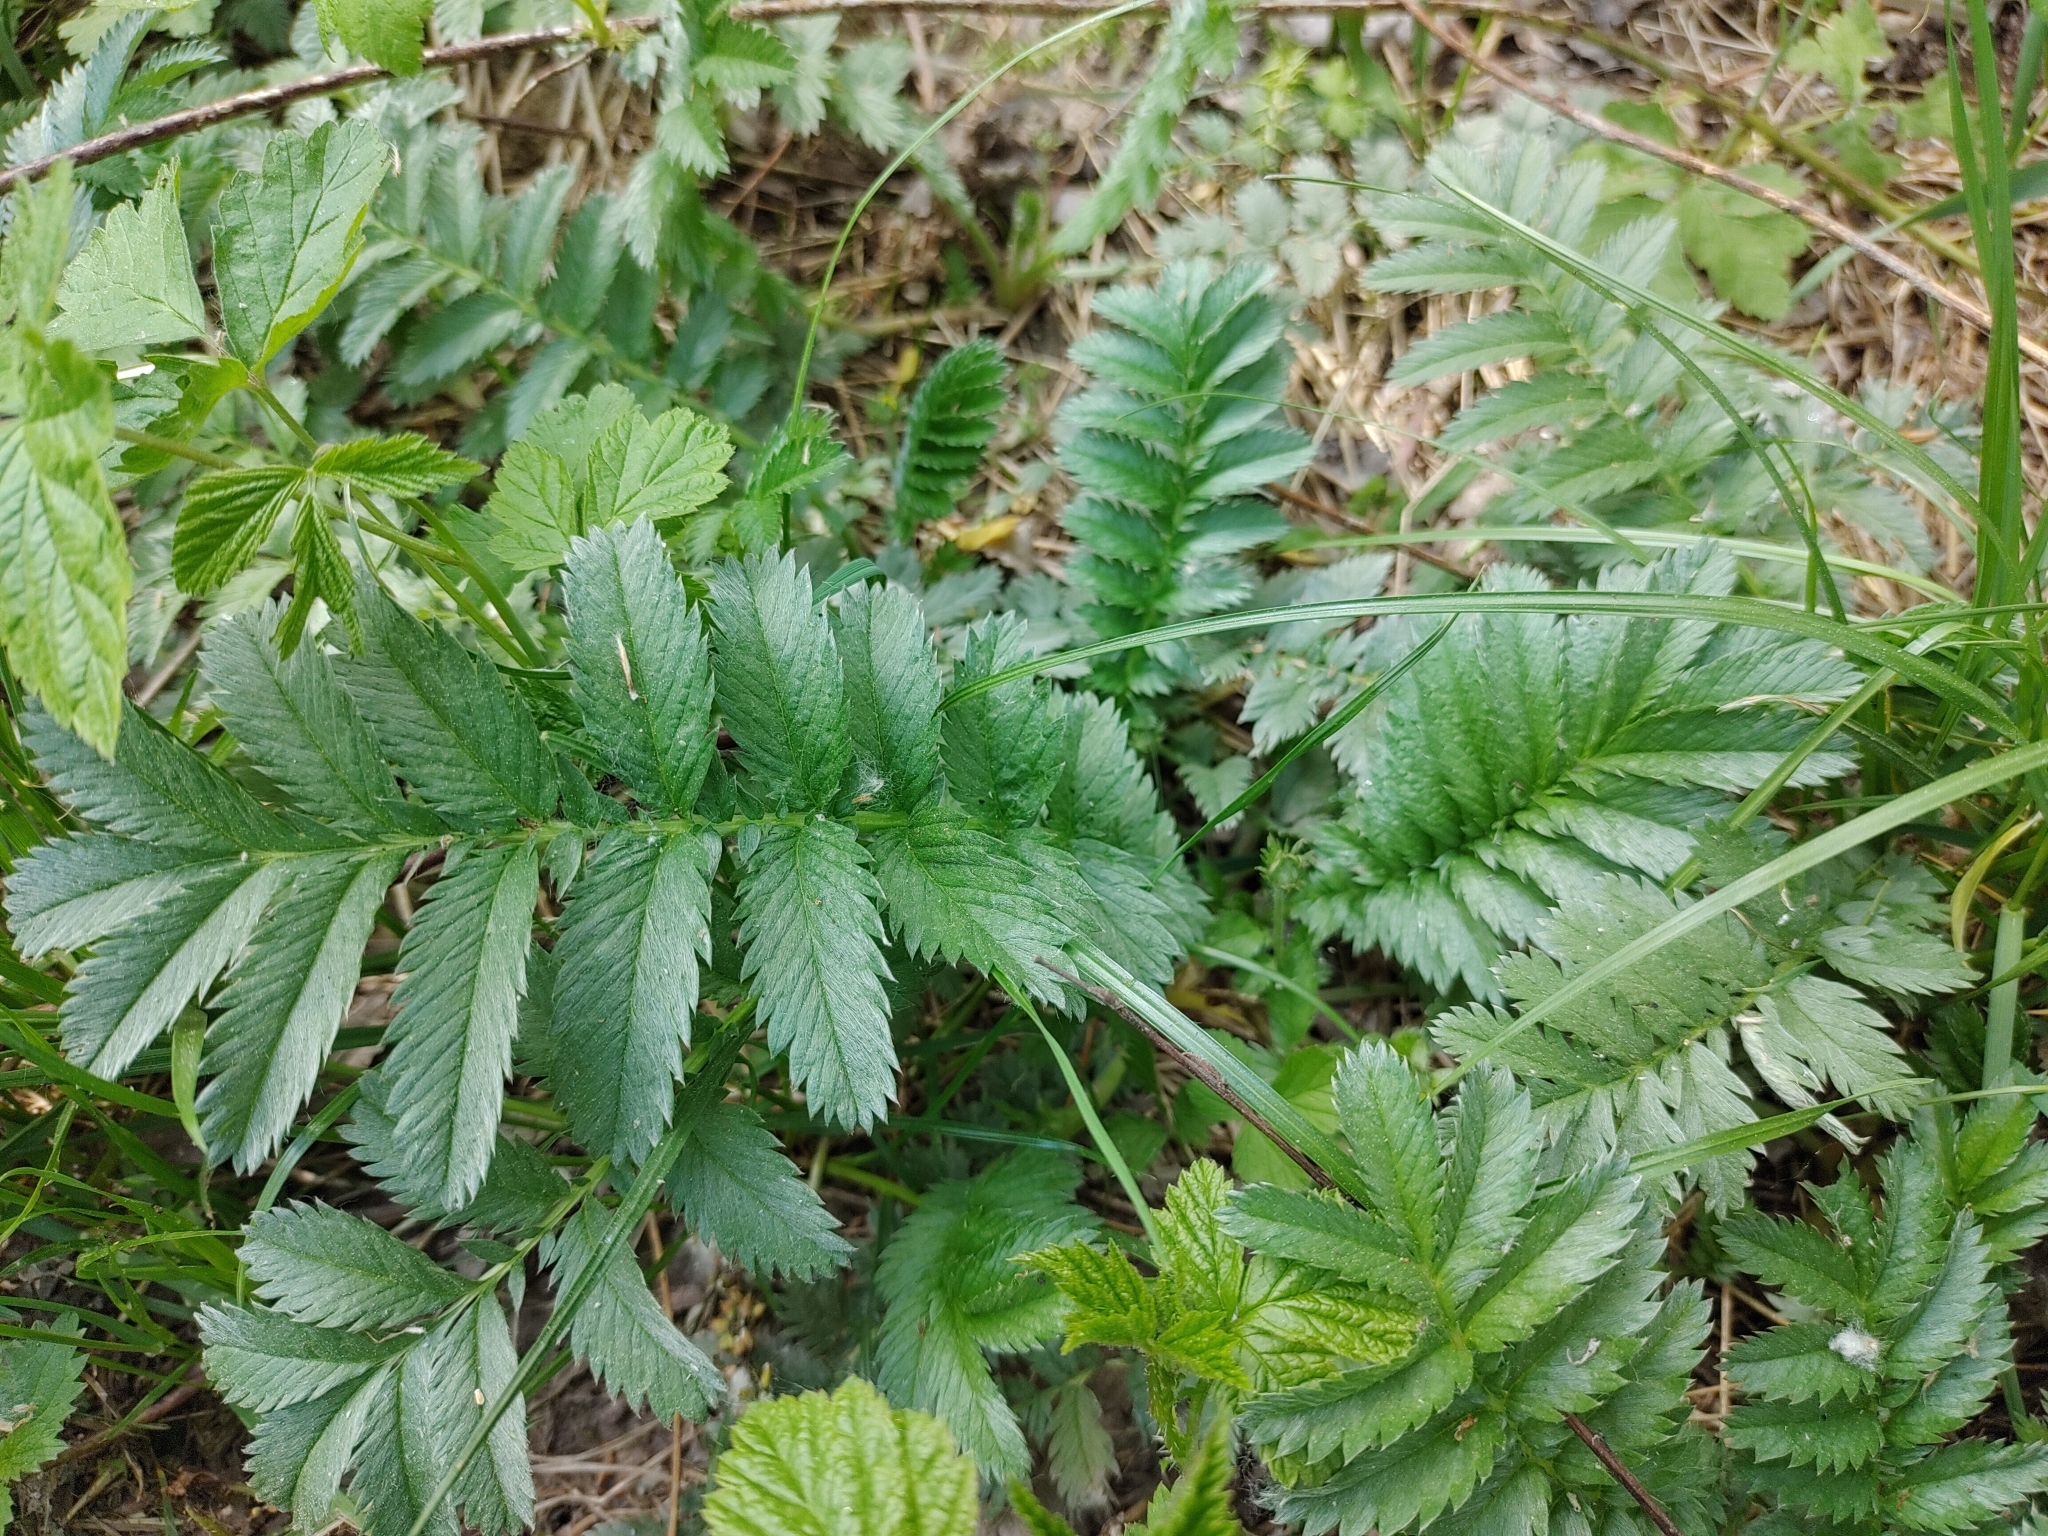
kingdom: Plantae
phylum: Tracheophyta
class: Magnoliopsida
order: Rosales
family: Rosaceae
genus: Argentina
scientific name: Argentina anserina
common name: Common silverweed
